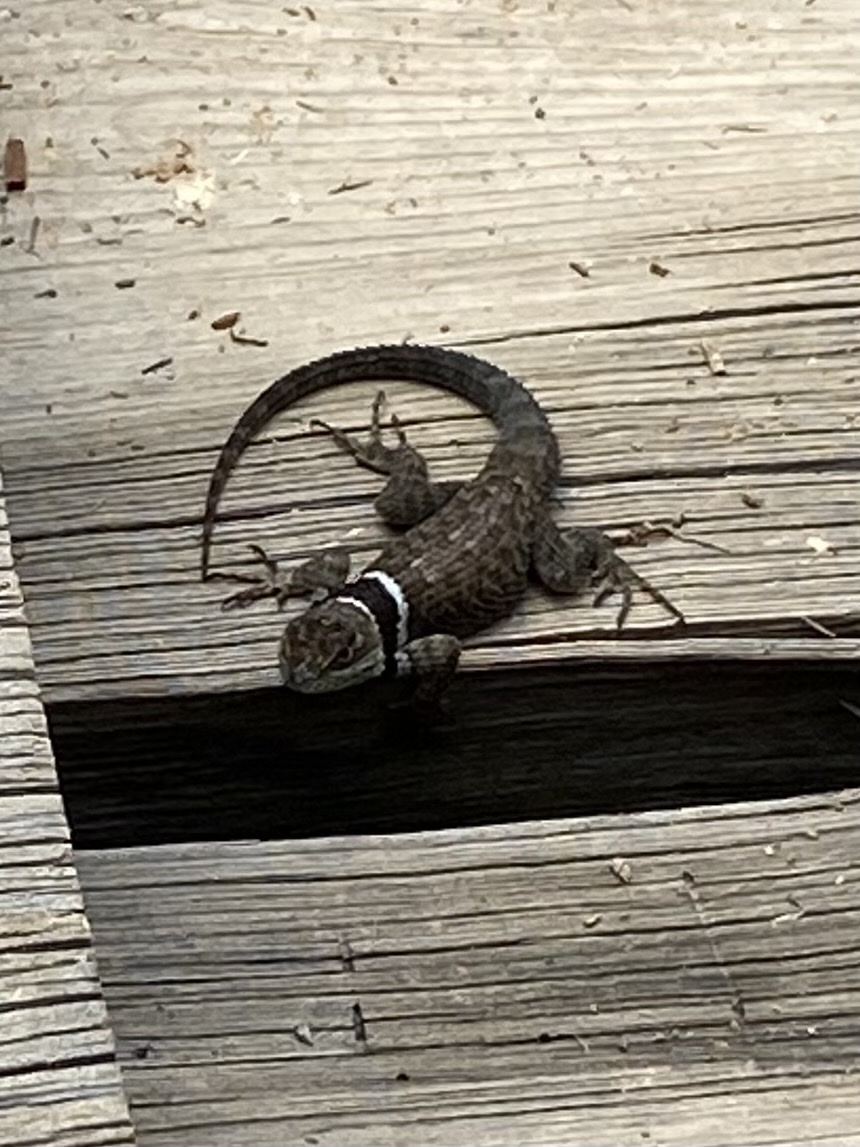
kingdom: Animalia
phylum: Chordata
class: Squamata
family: Phrynosomatidae
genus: Sceloporus
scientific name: Sceloporus aureolus
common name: Eastern cleft spiny lizard
